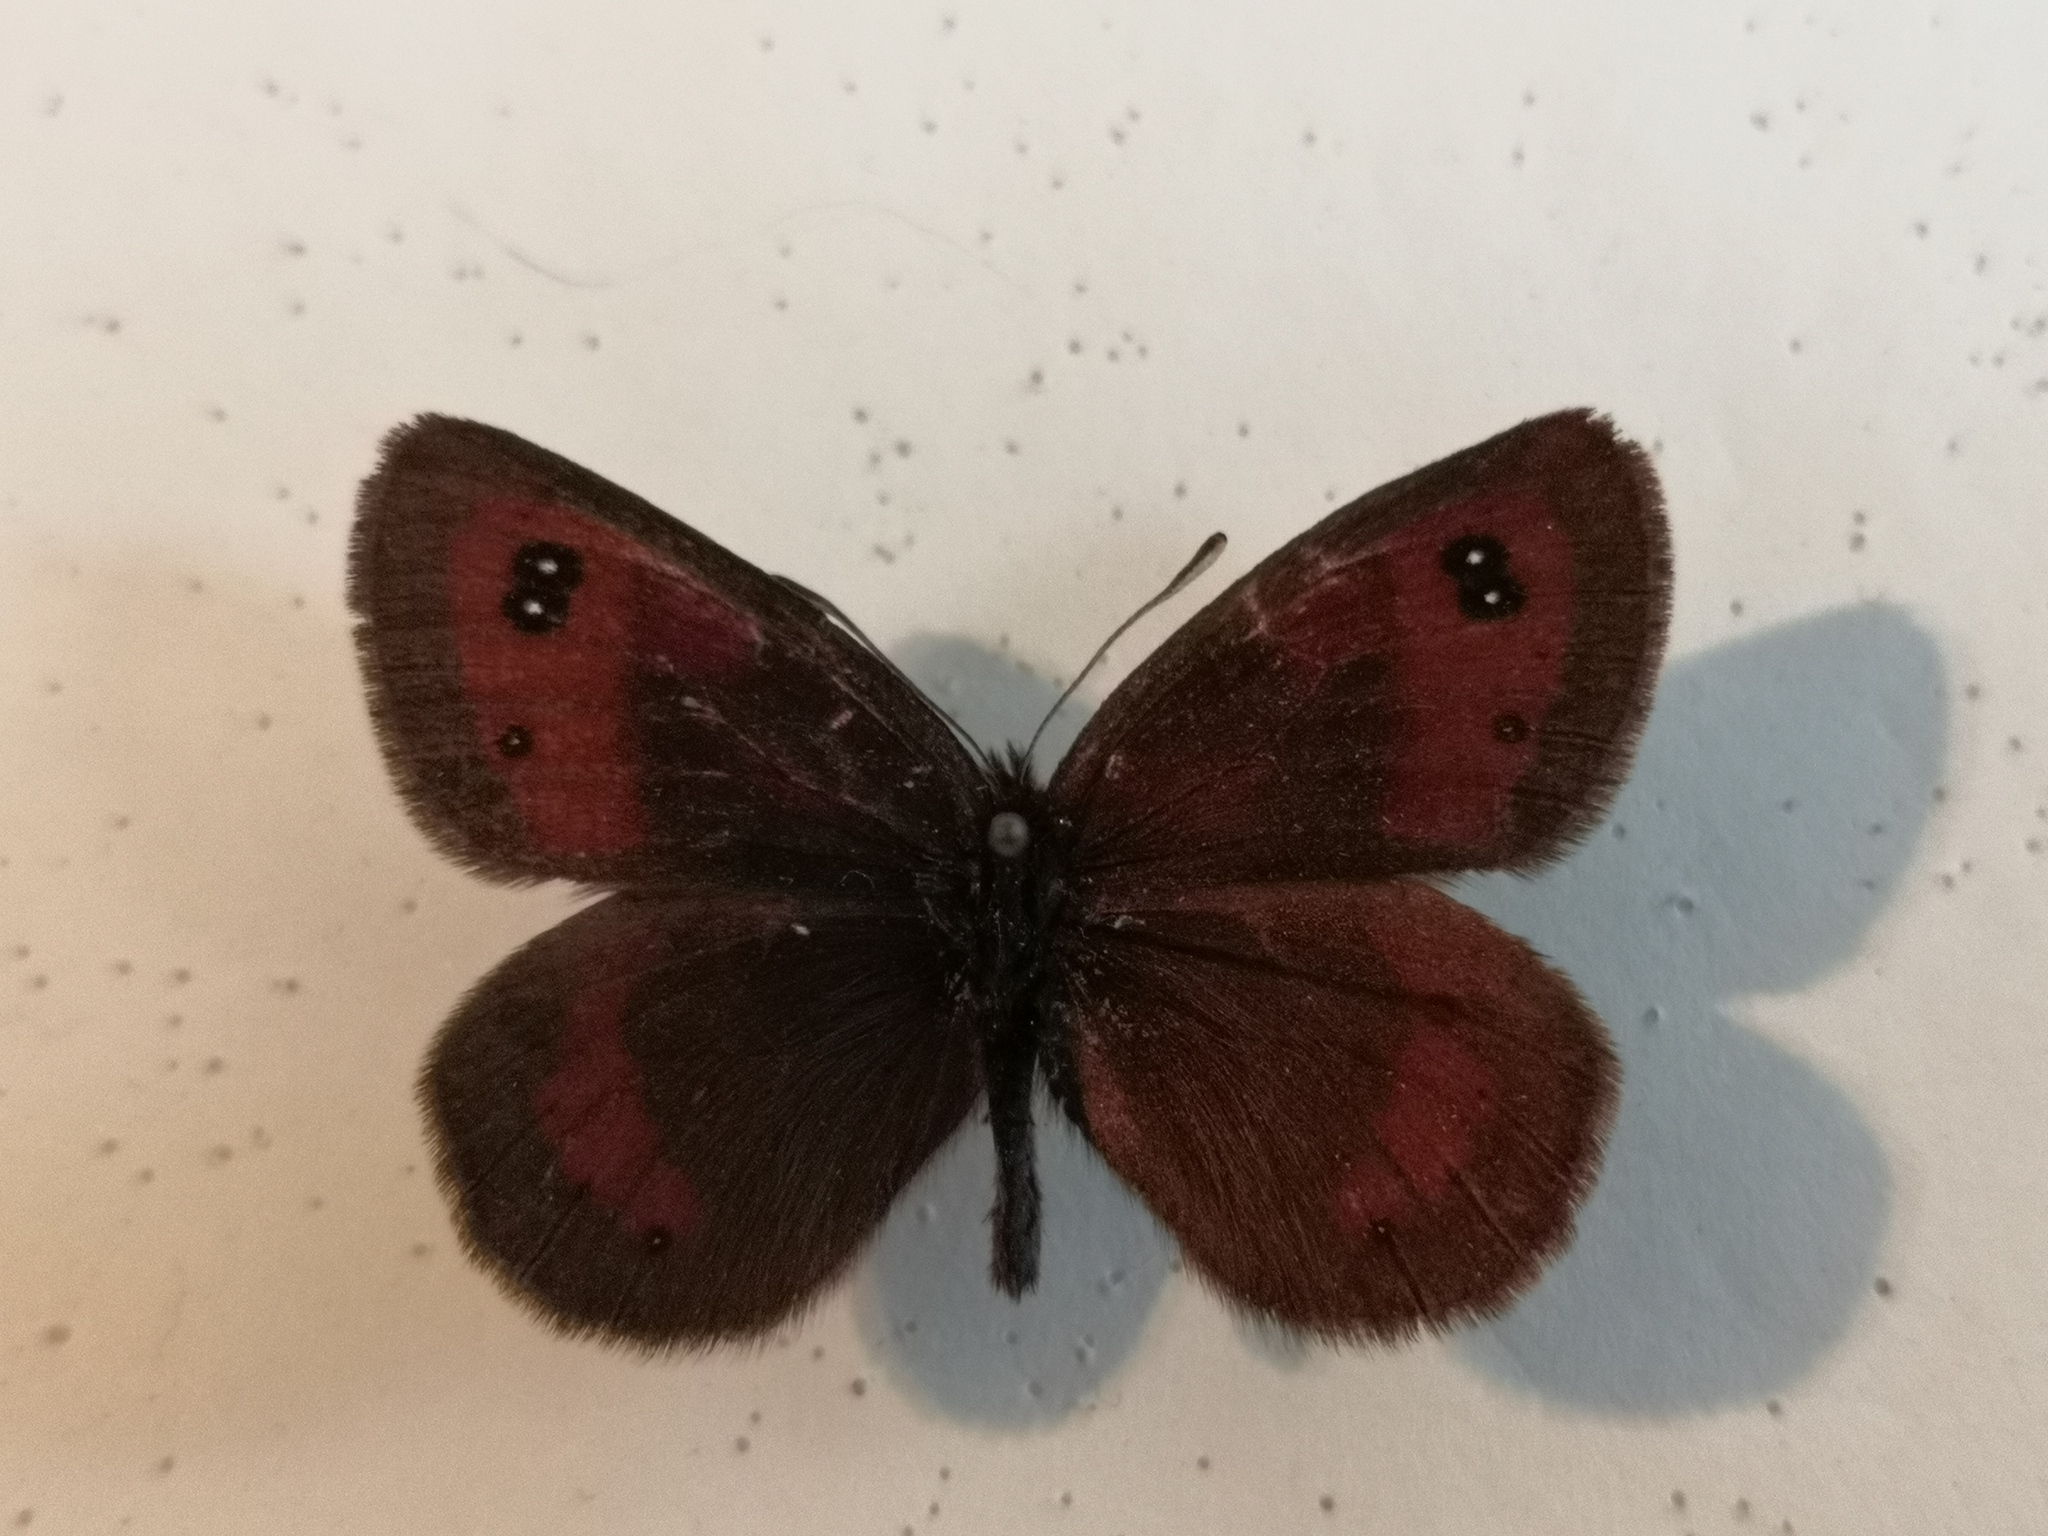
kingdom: Animalia
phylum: Arthropoda
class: Insecta
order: Lepidoptera
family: Nymphalidae
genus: Erebia
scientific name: Erebia rhodopensis
